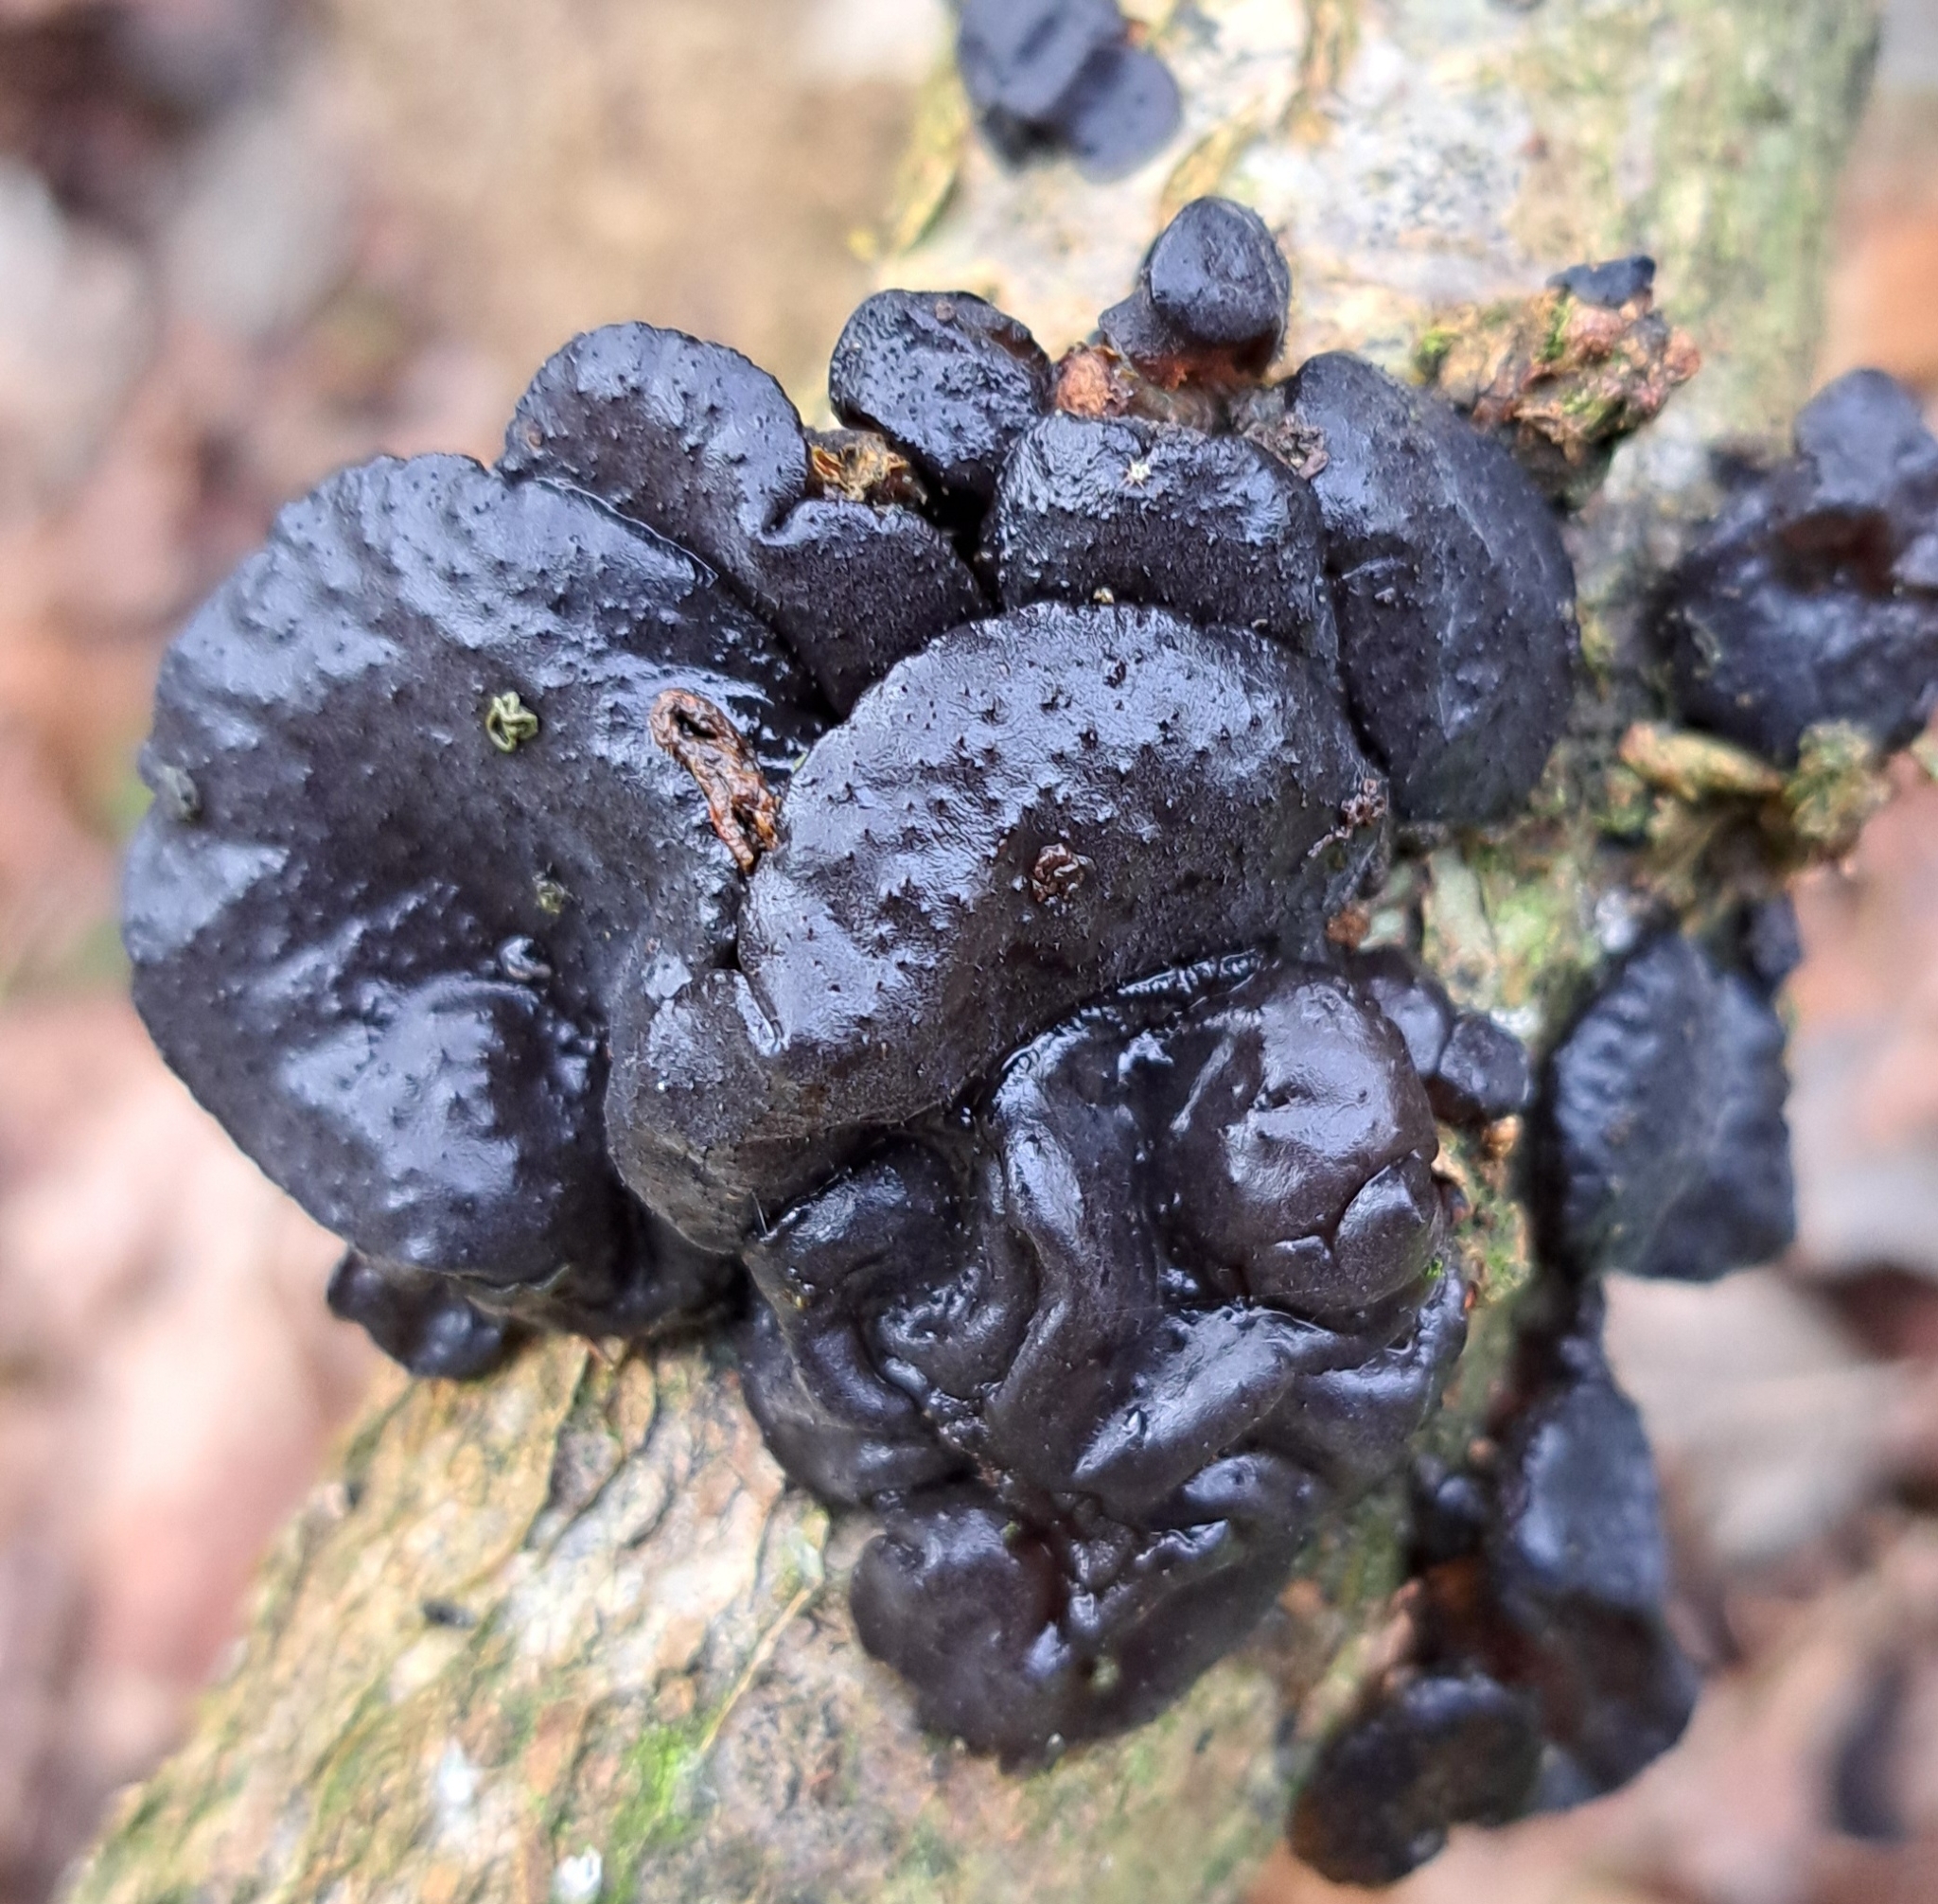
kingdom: Fungi
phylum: Basidiomycota
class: Agaricomycetes
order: Auriculariales
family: Auriculariaceae
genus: Exidia
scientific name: Exidia glandulosa
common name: Witches' butter
